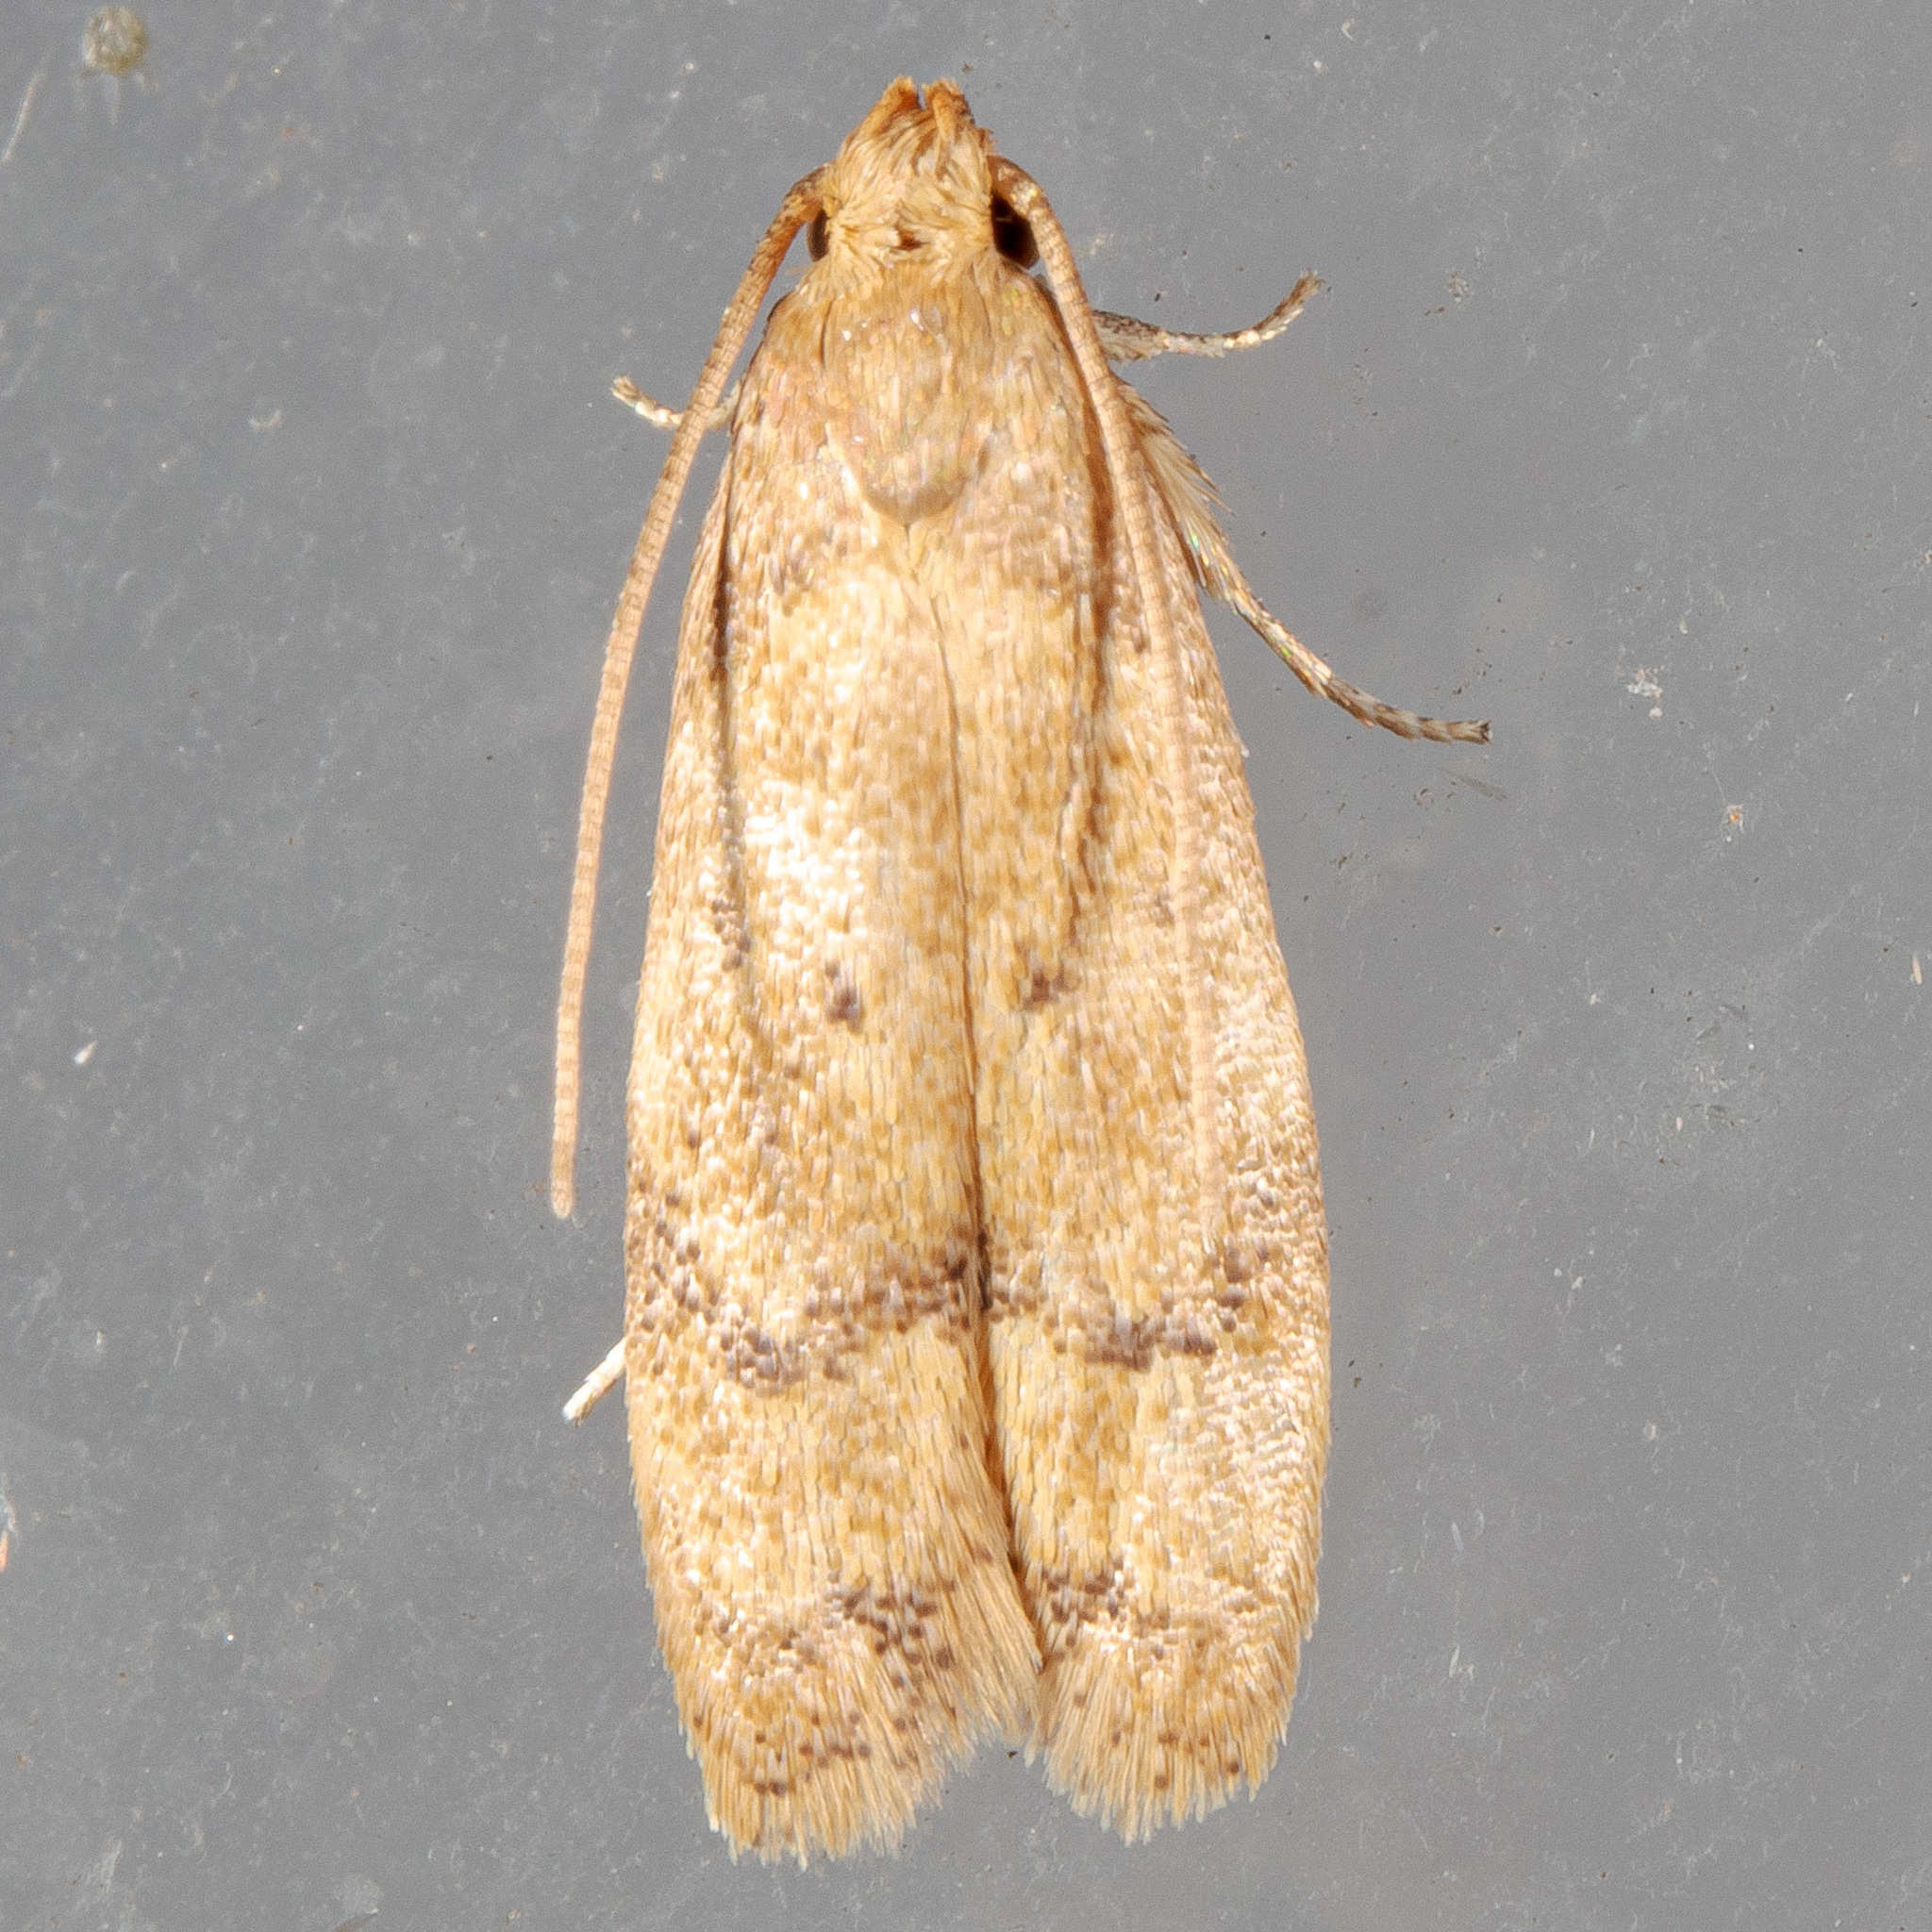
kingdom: Animalia
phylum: Arthropoda
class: Insecta
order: Lepidoptera
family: Autostichidae
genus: Gerdana
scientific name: Gerdana caritella
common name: Gerdana moth
